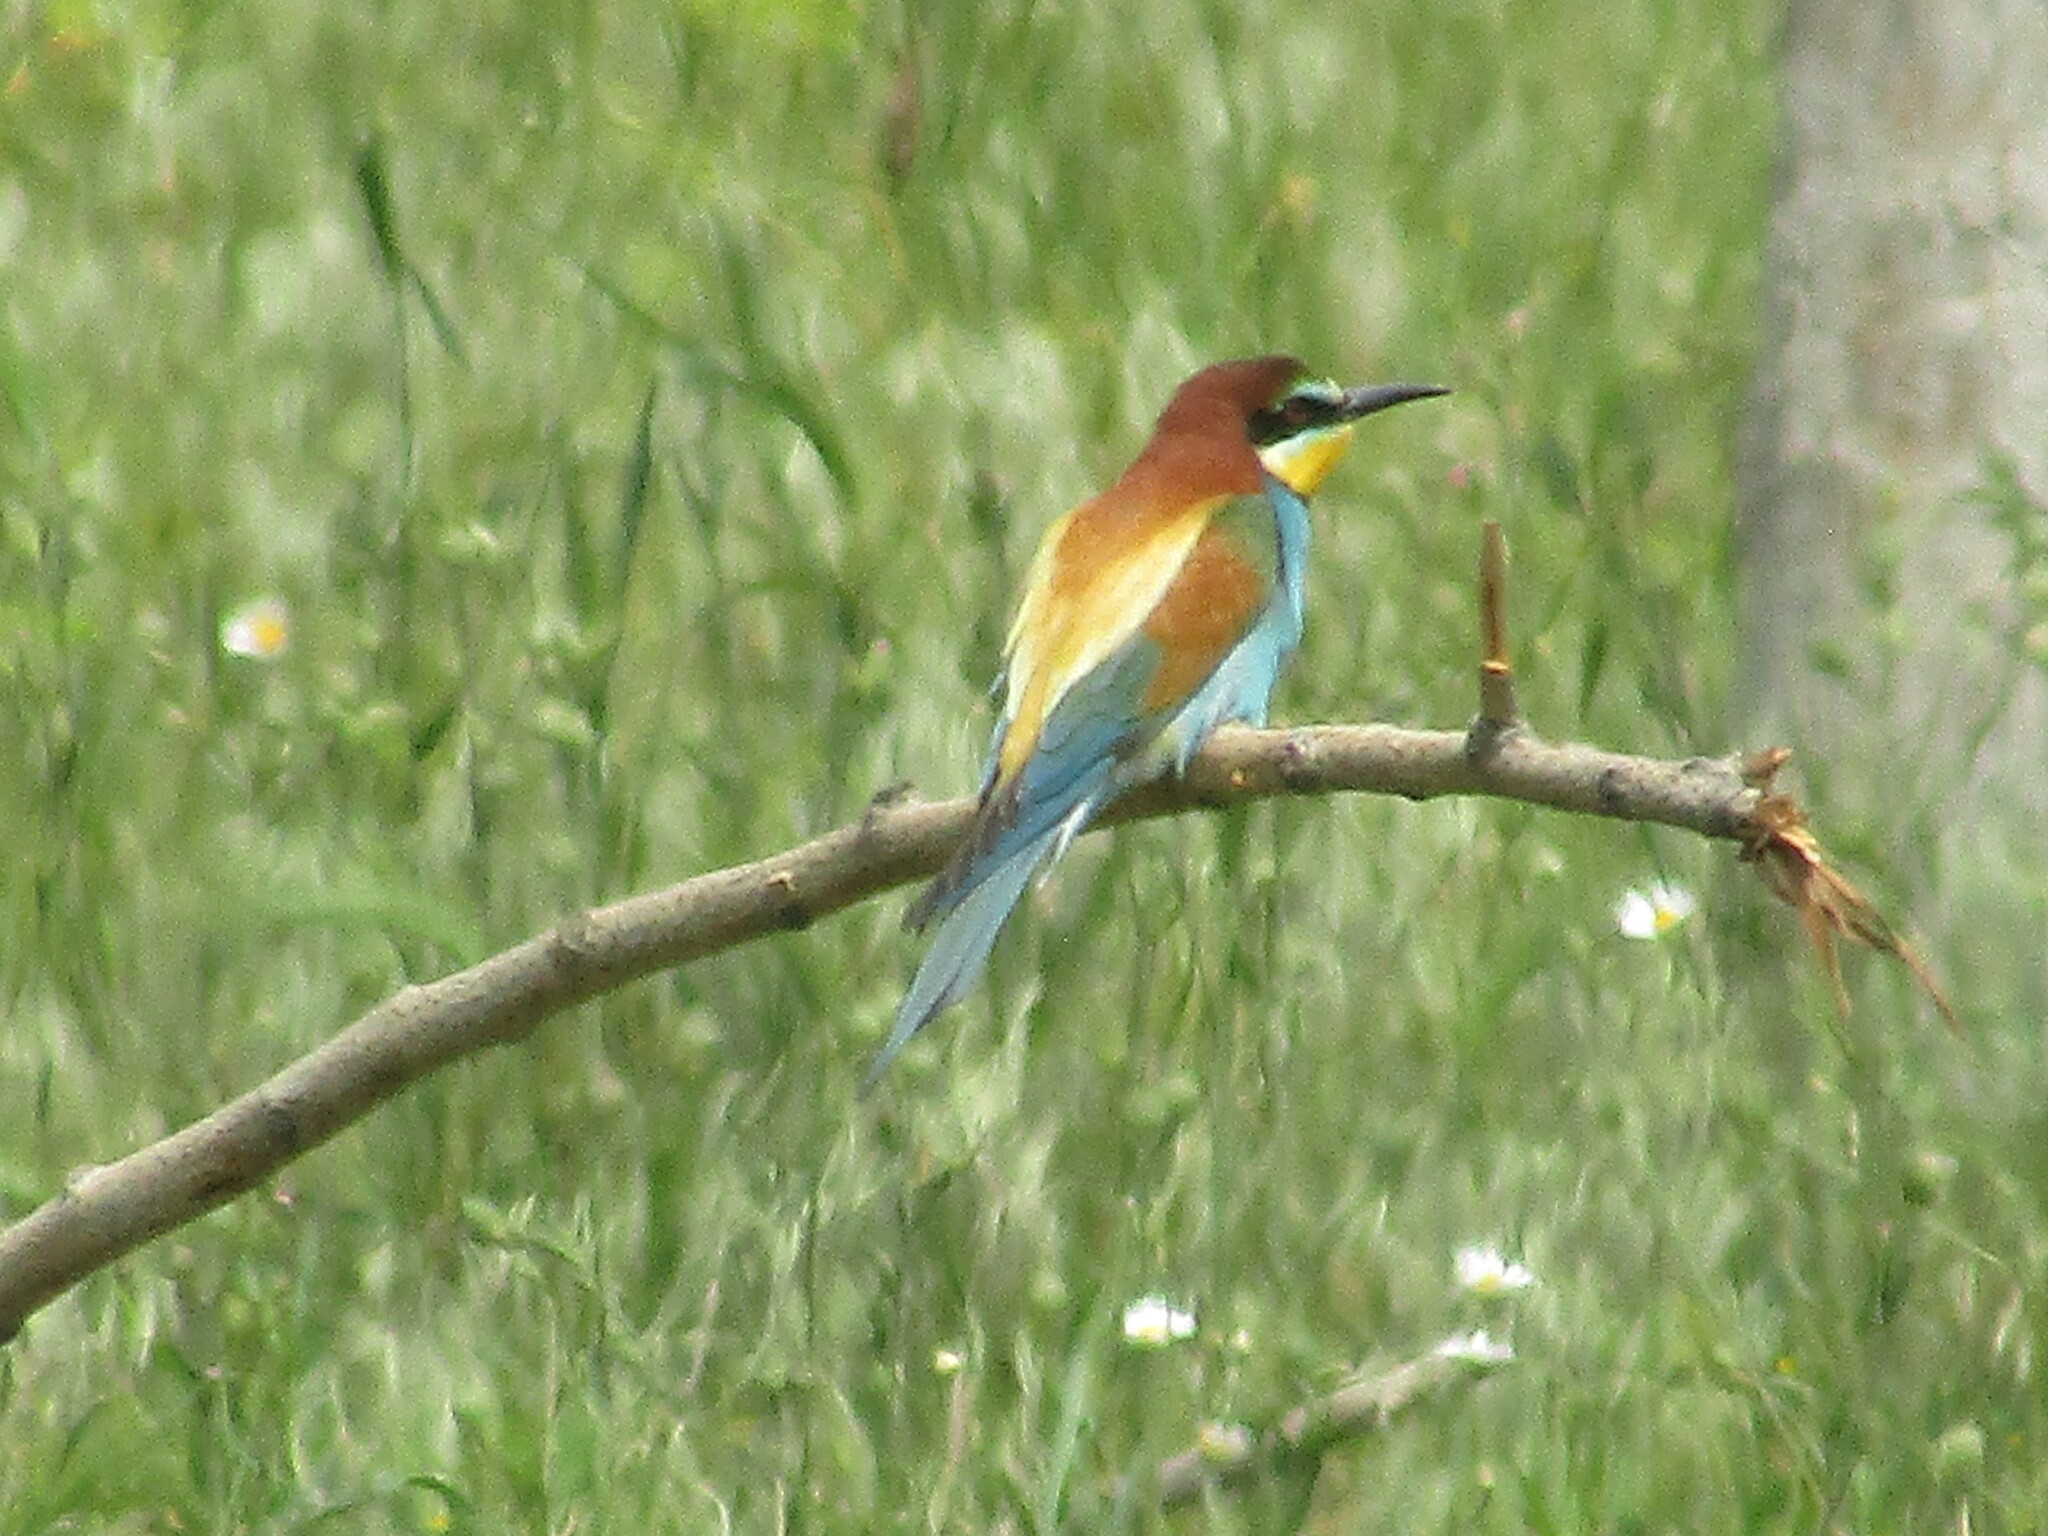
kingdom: Animalia
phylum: Chordata
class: Aves
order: Coraciiformes
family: Meropidae
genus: Merops
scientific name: Merops apiaster
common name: European bee-eater
